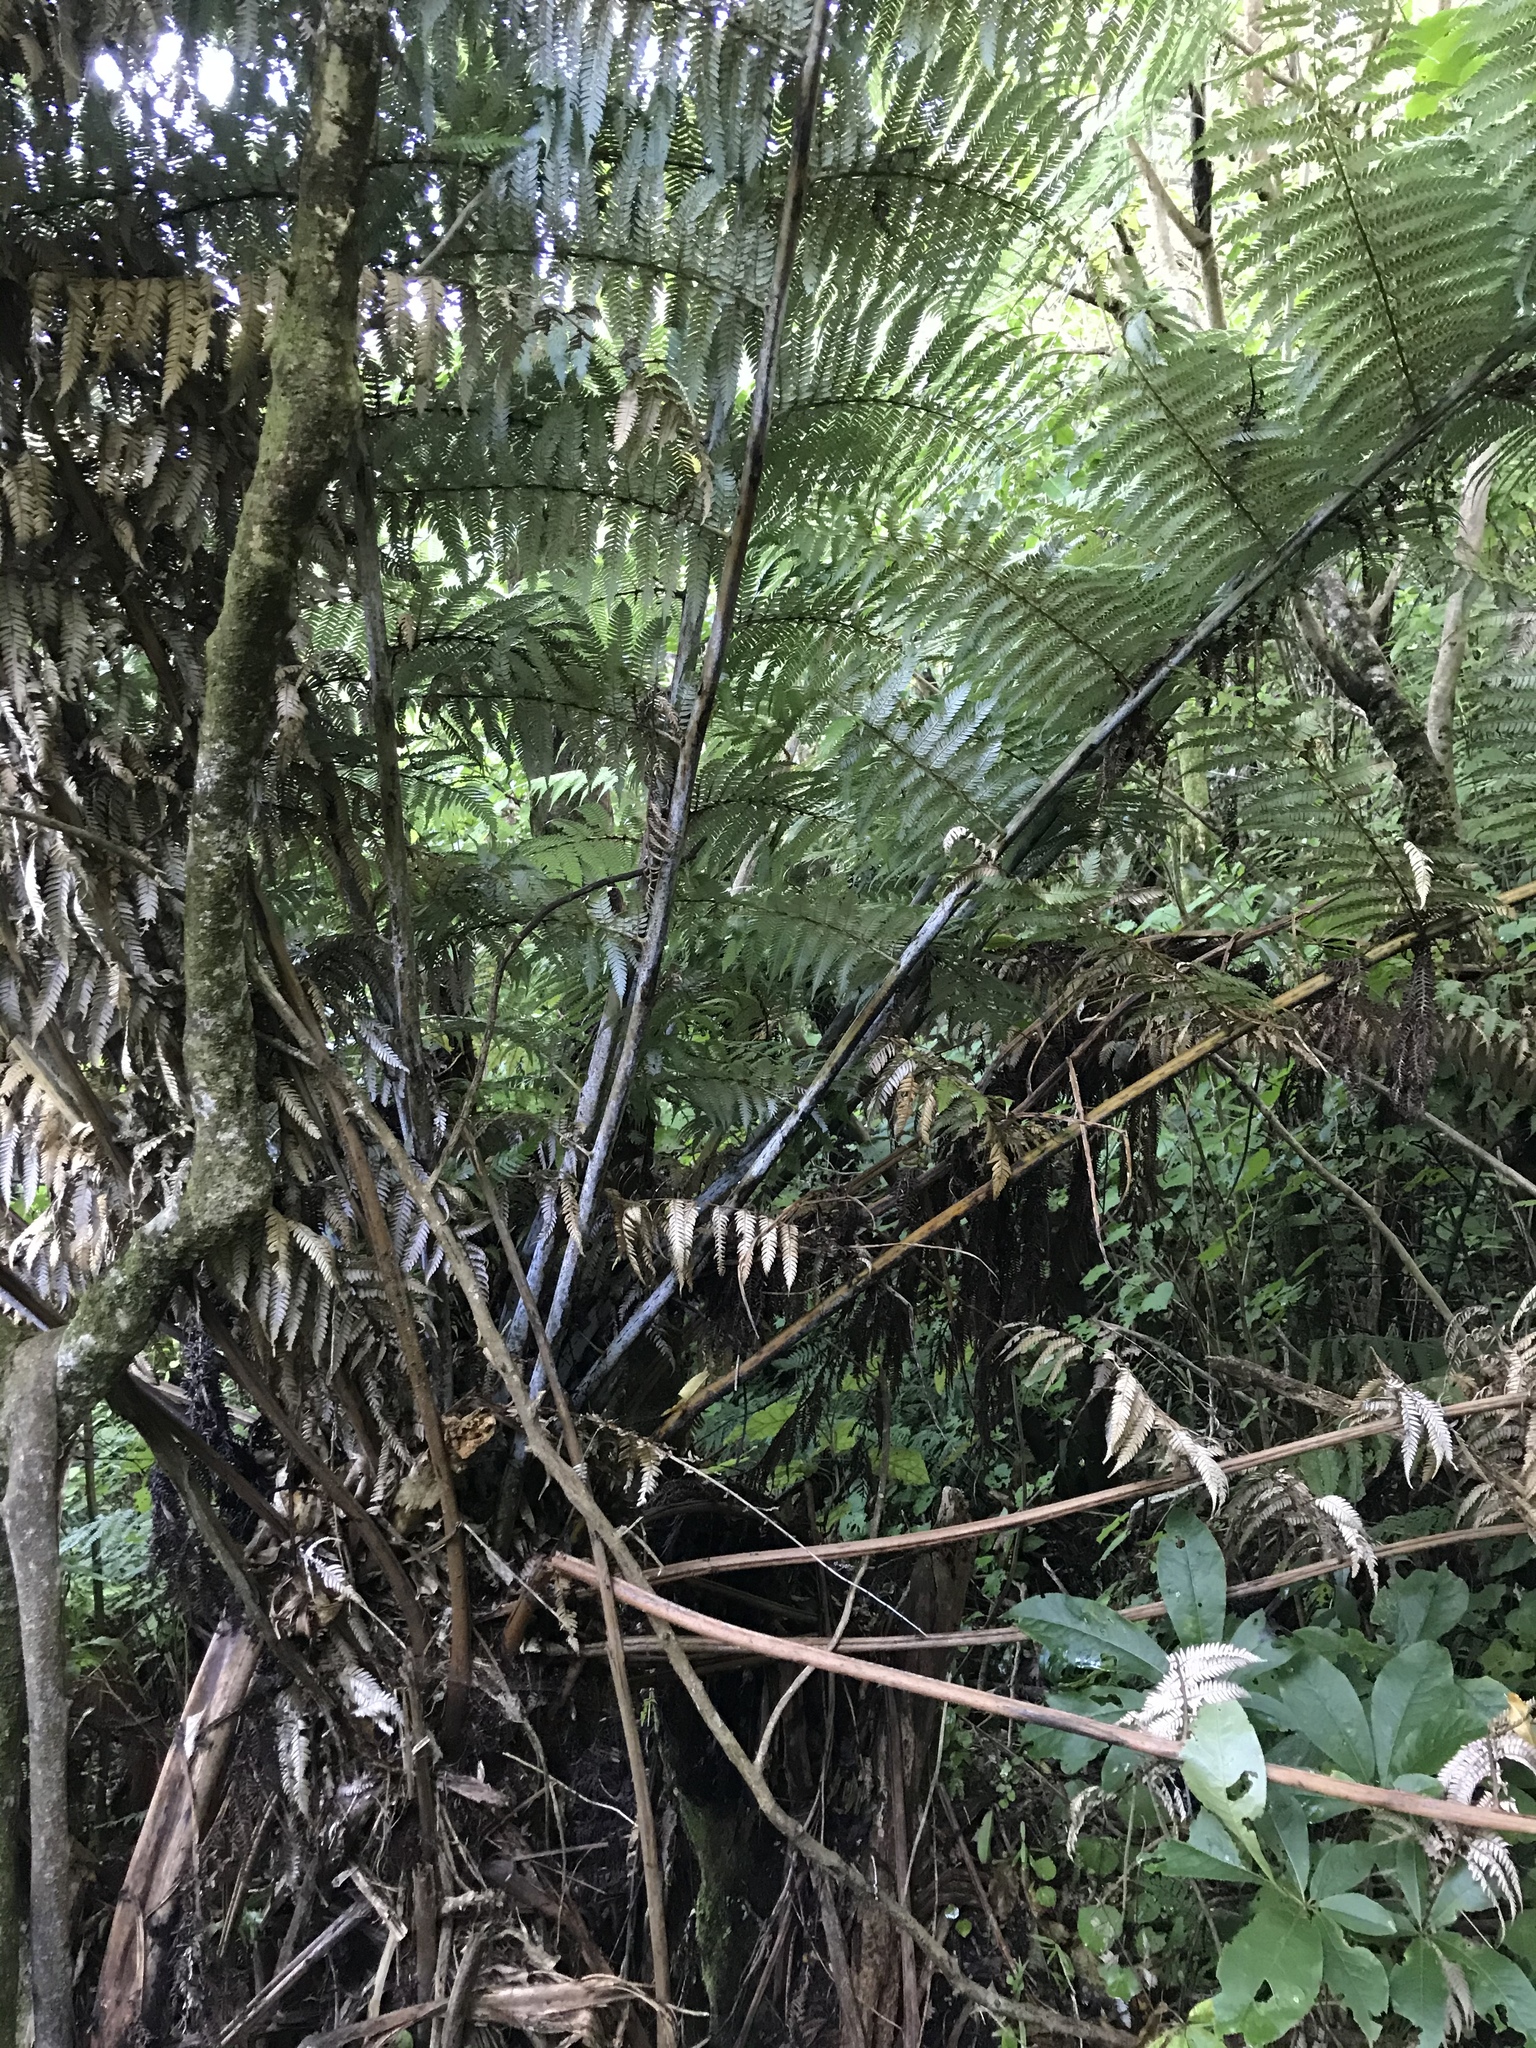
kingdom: Plantae
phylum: Tracheophyta
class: Polypodiopsida
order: Cyatheales
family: Cyatheaceae
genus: Alsophila
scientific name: Alsophila dealbata
